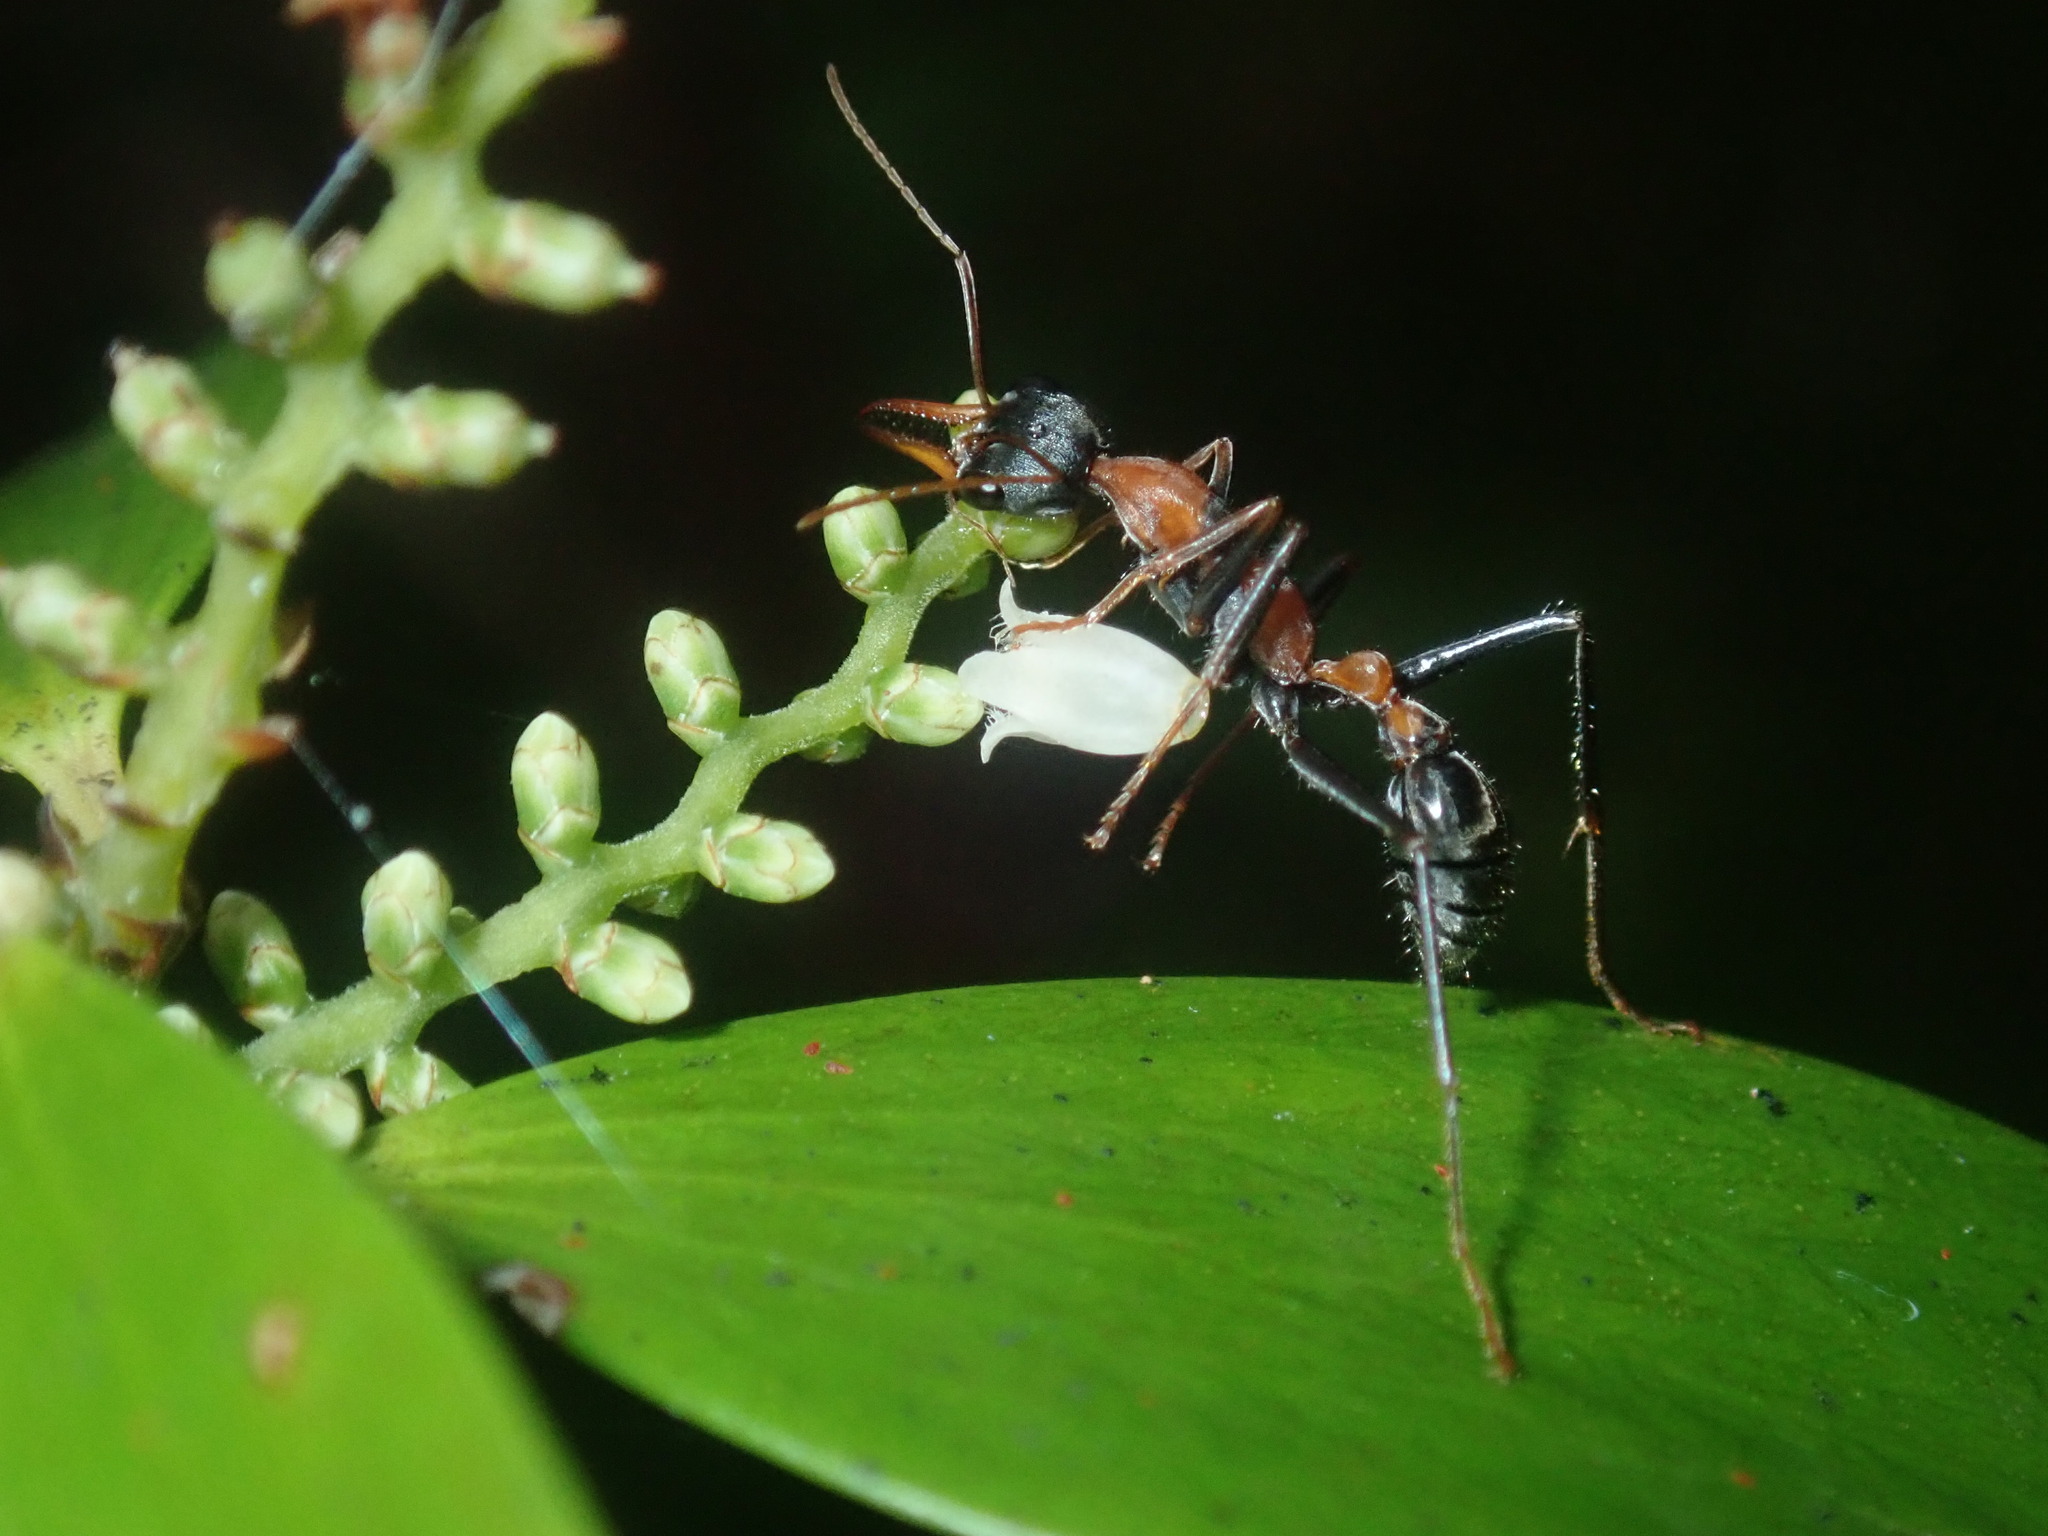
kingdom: Animalia
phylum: Arthropoda
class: Insecta
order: Hymenoptera
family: Formicidae
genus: Myrmecia
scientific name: Myrmecia nigrocincta
